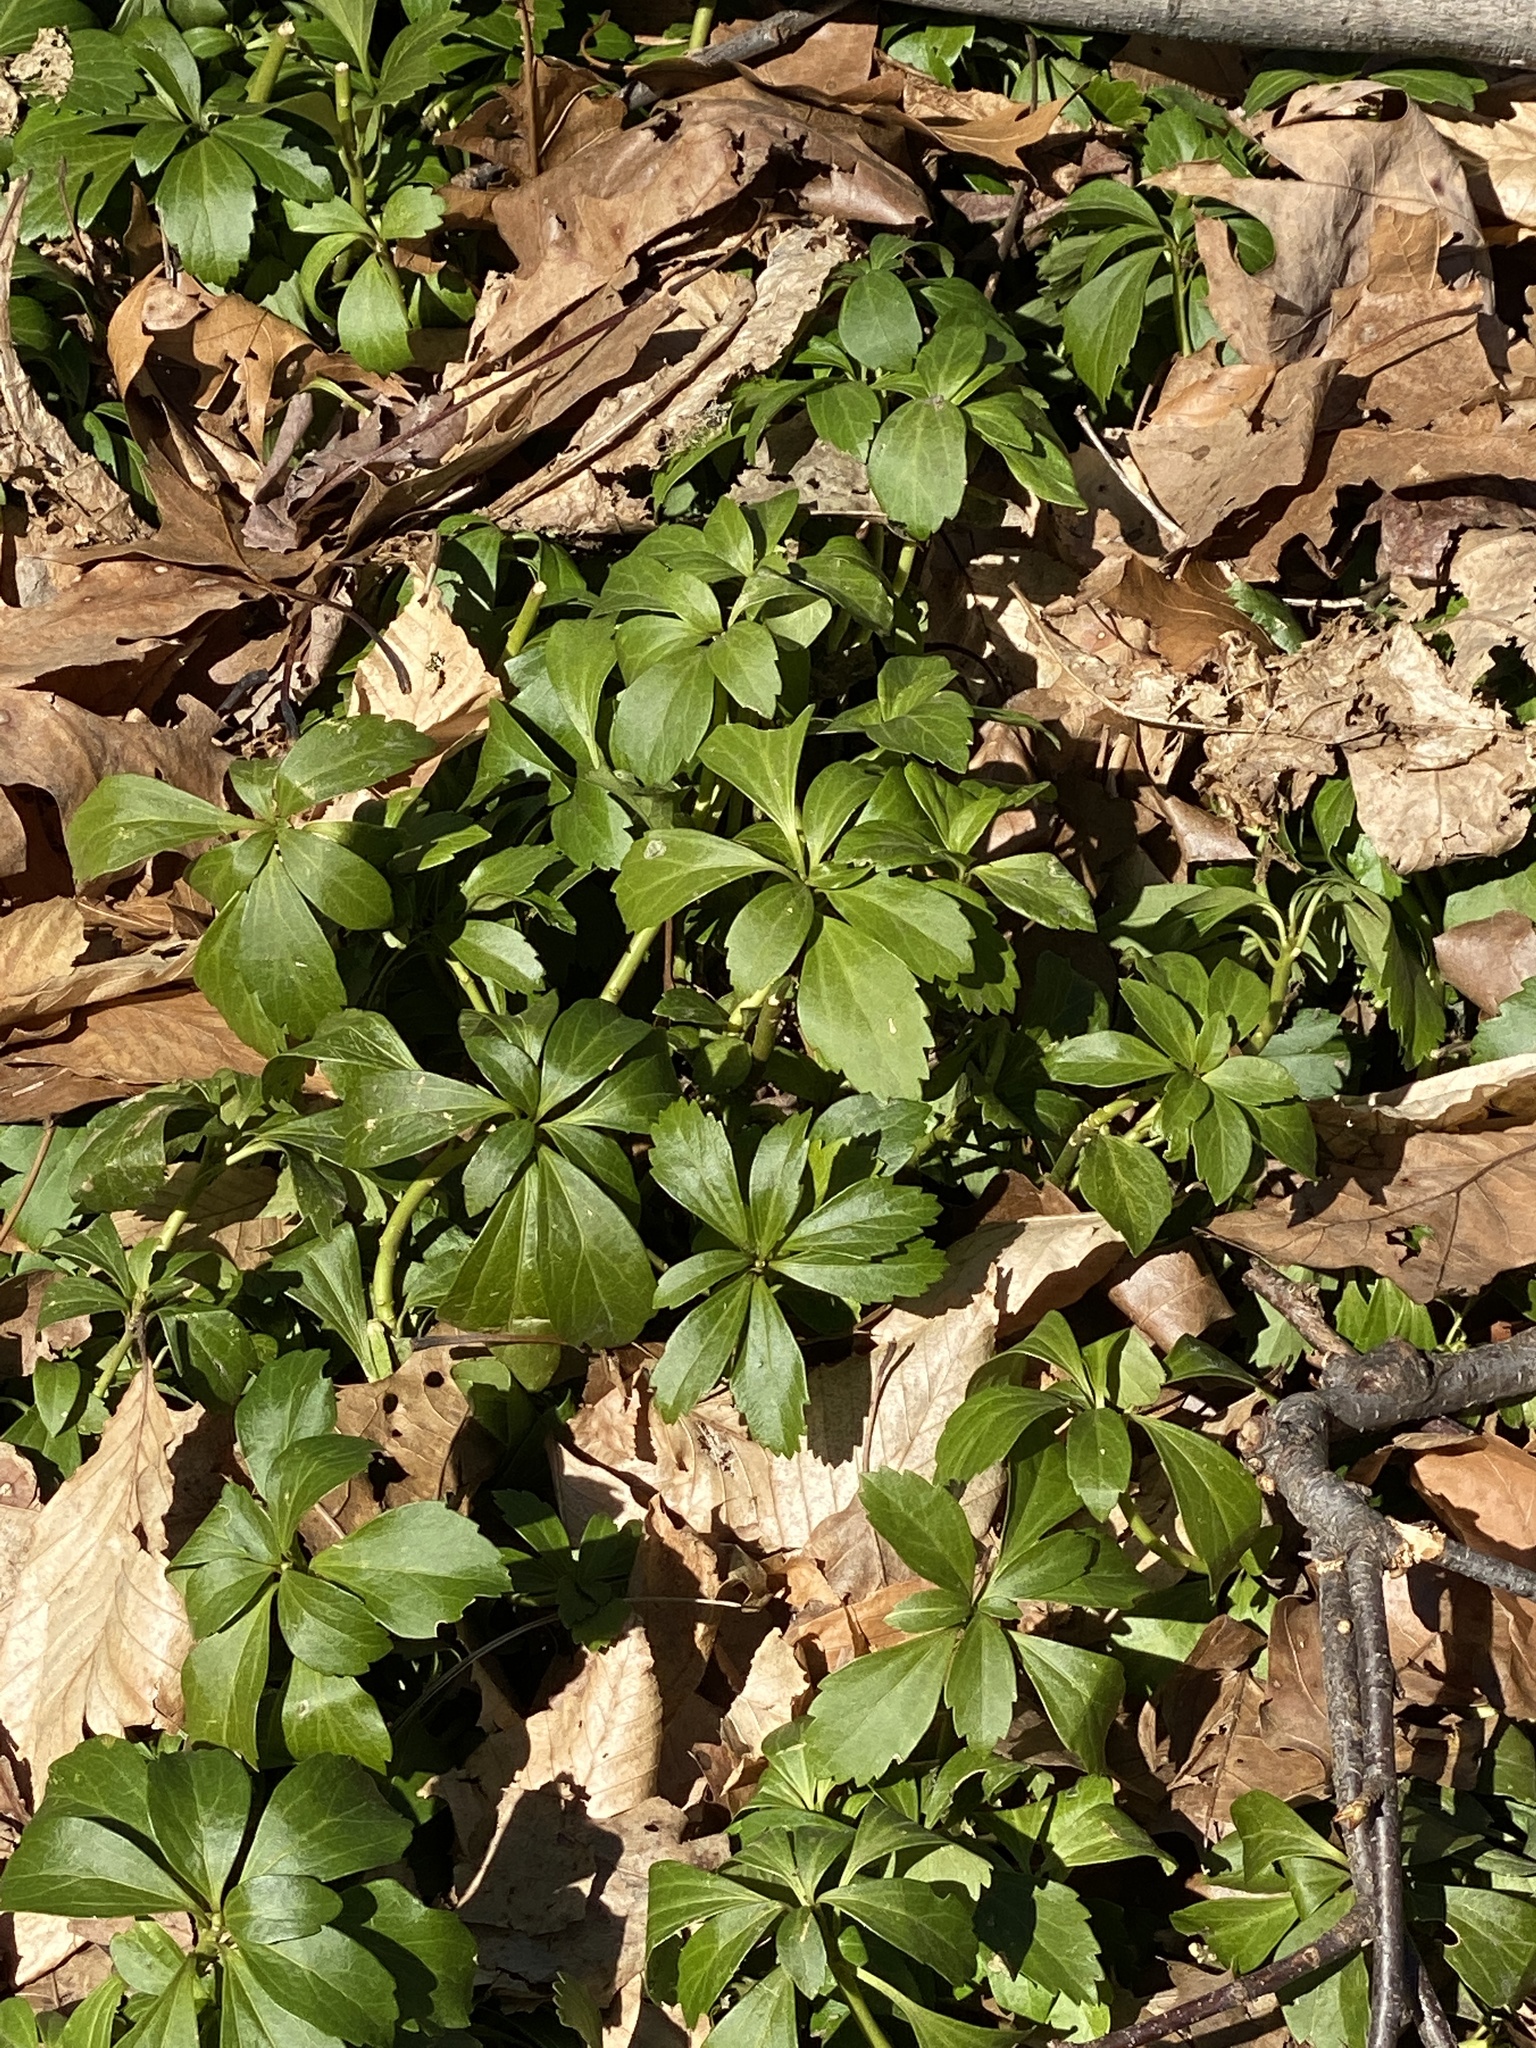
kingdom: Plantae
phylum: Tracheophyta
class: Magnoliopsida
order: Buxales
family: Buxaceae
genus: Pachysandra
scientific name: Pachysandra terminalis
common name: Japanese pachysandra
